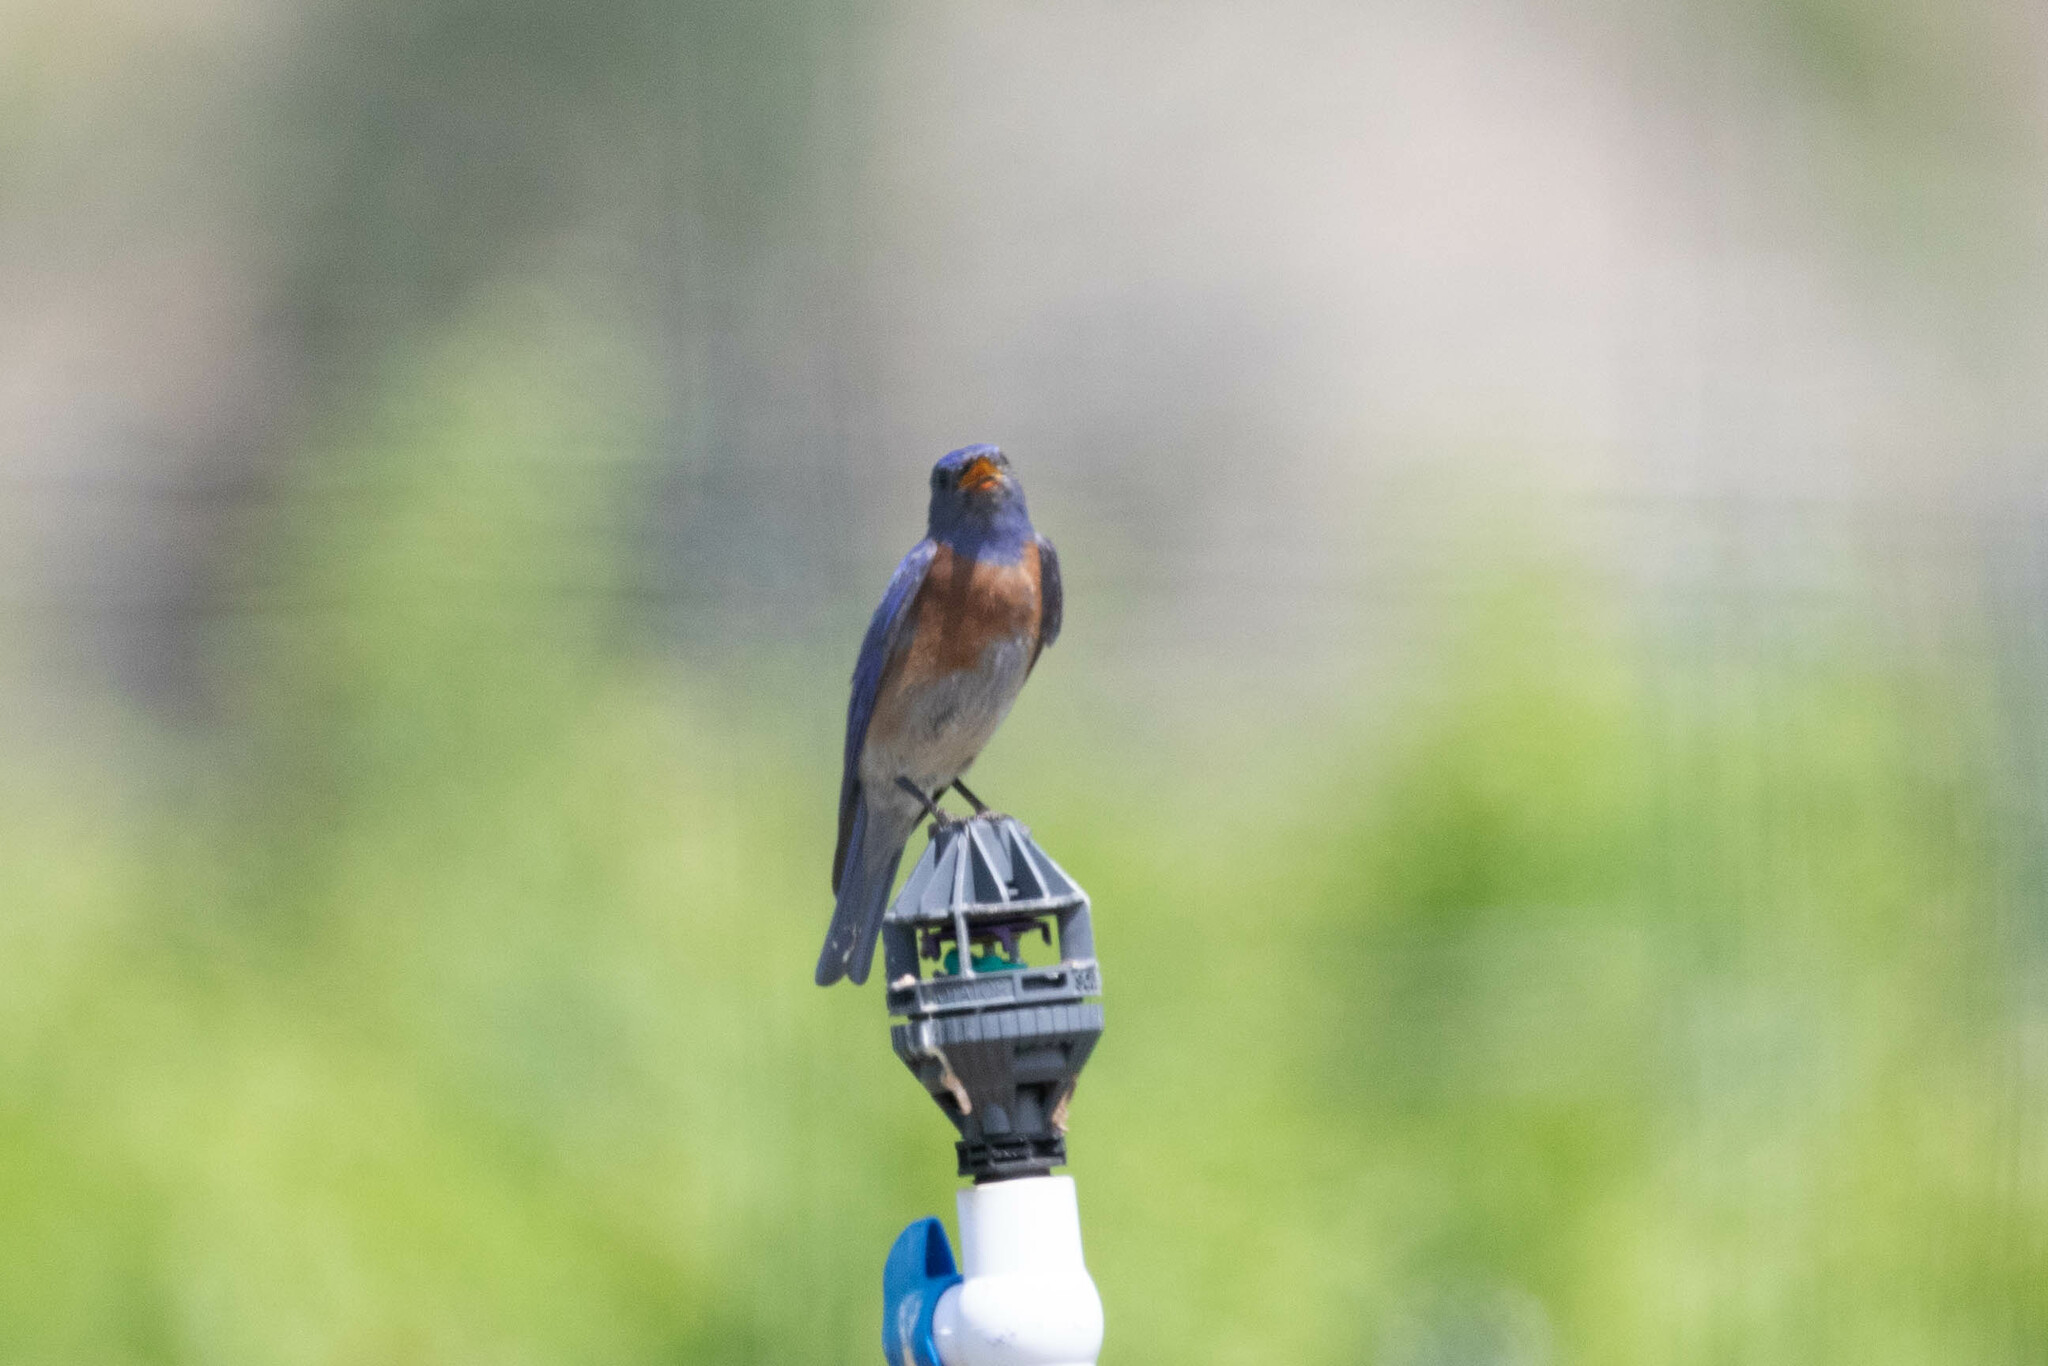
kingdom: Animalia
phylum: Chordata
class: Aves
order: Passeriformes
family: Turdidae
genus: Sialia
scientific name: Sialia mexicana
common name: Western bluebird
